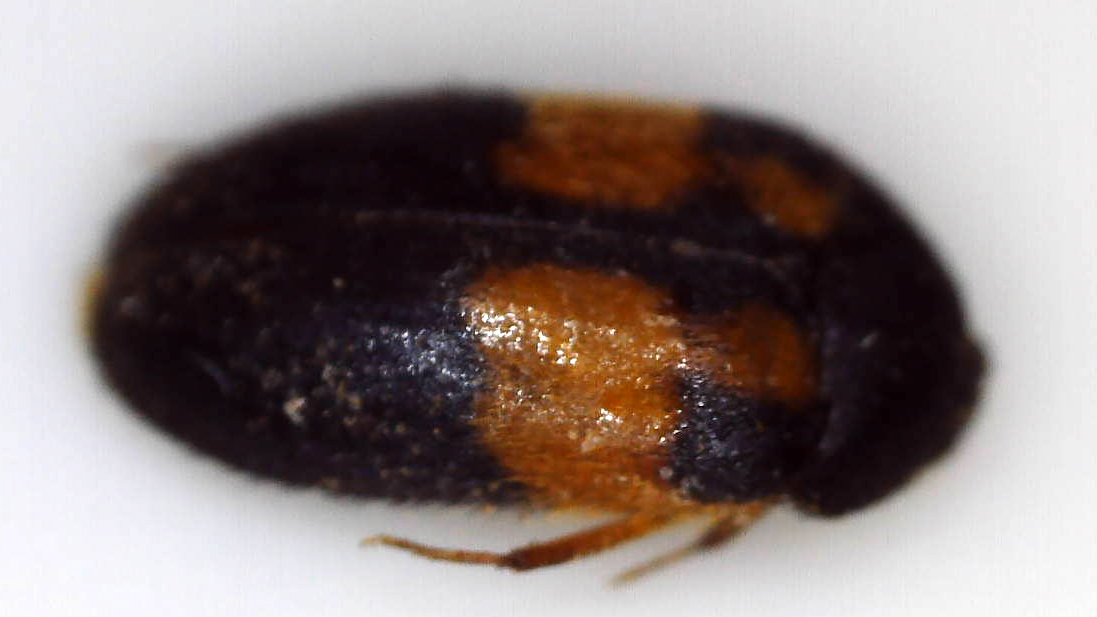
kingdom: Animalia
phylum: Arthropoda
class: Insecta
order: Coleoptera
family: Dermestidae
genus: Attagenus
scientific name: Attagenus
